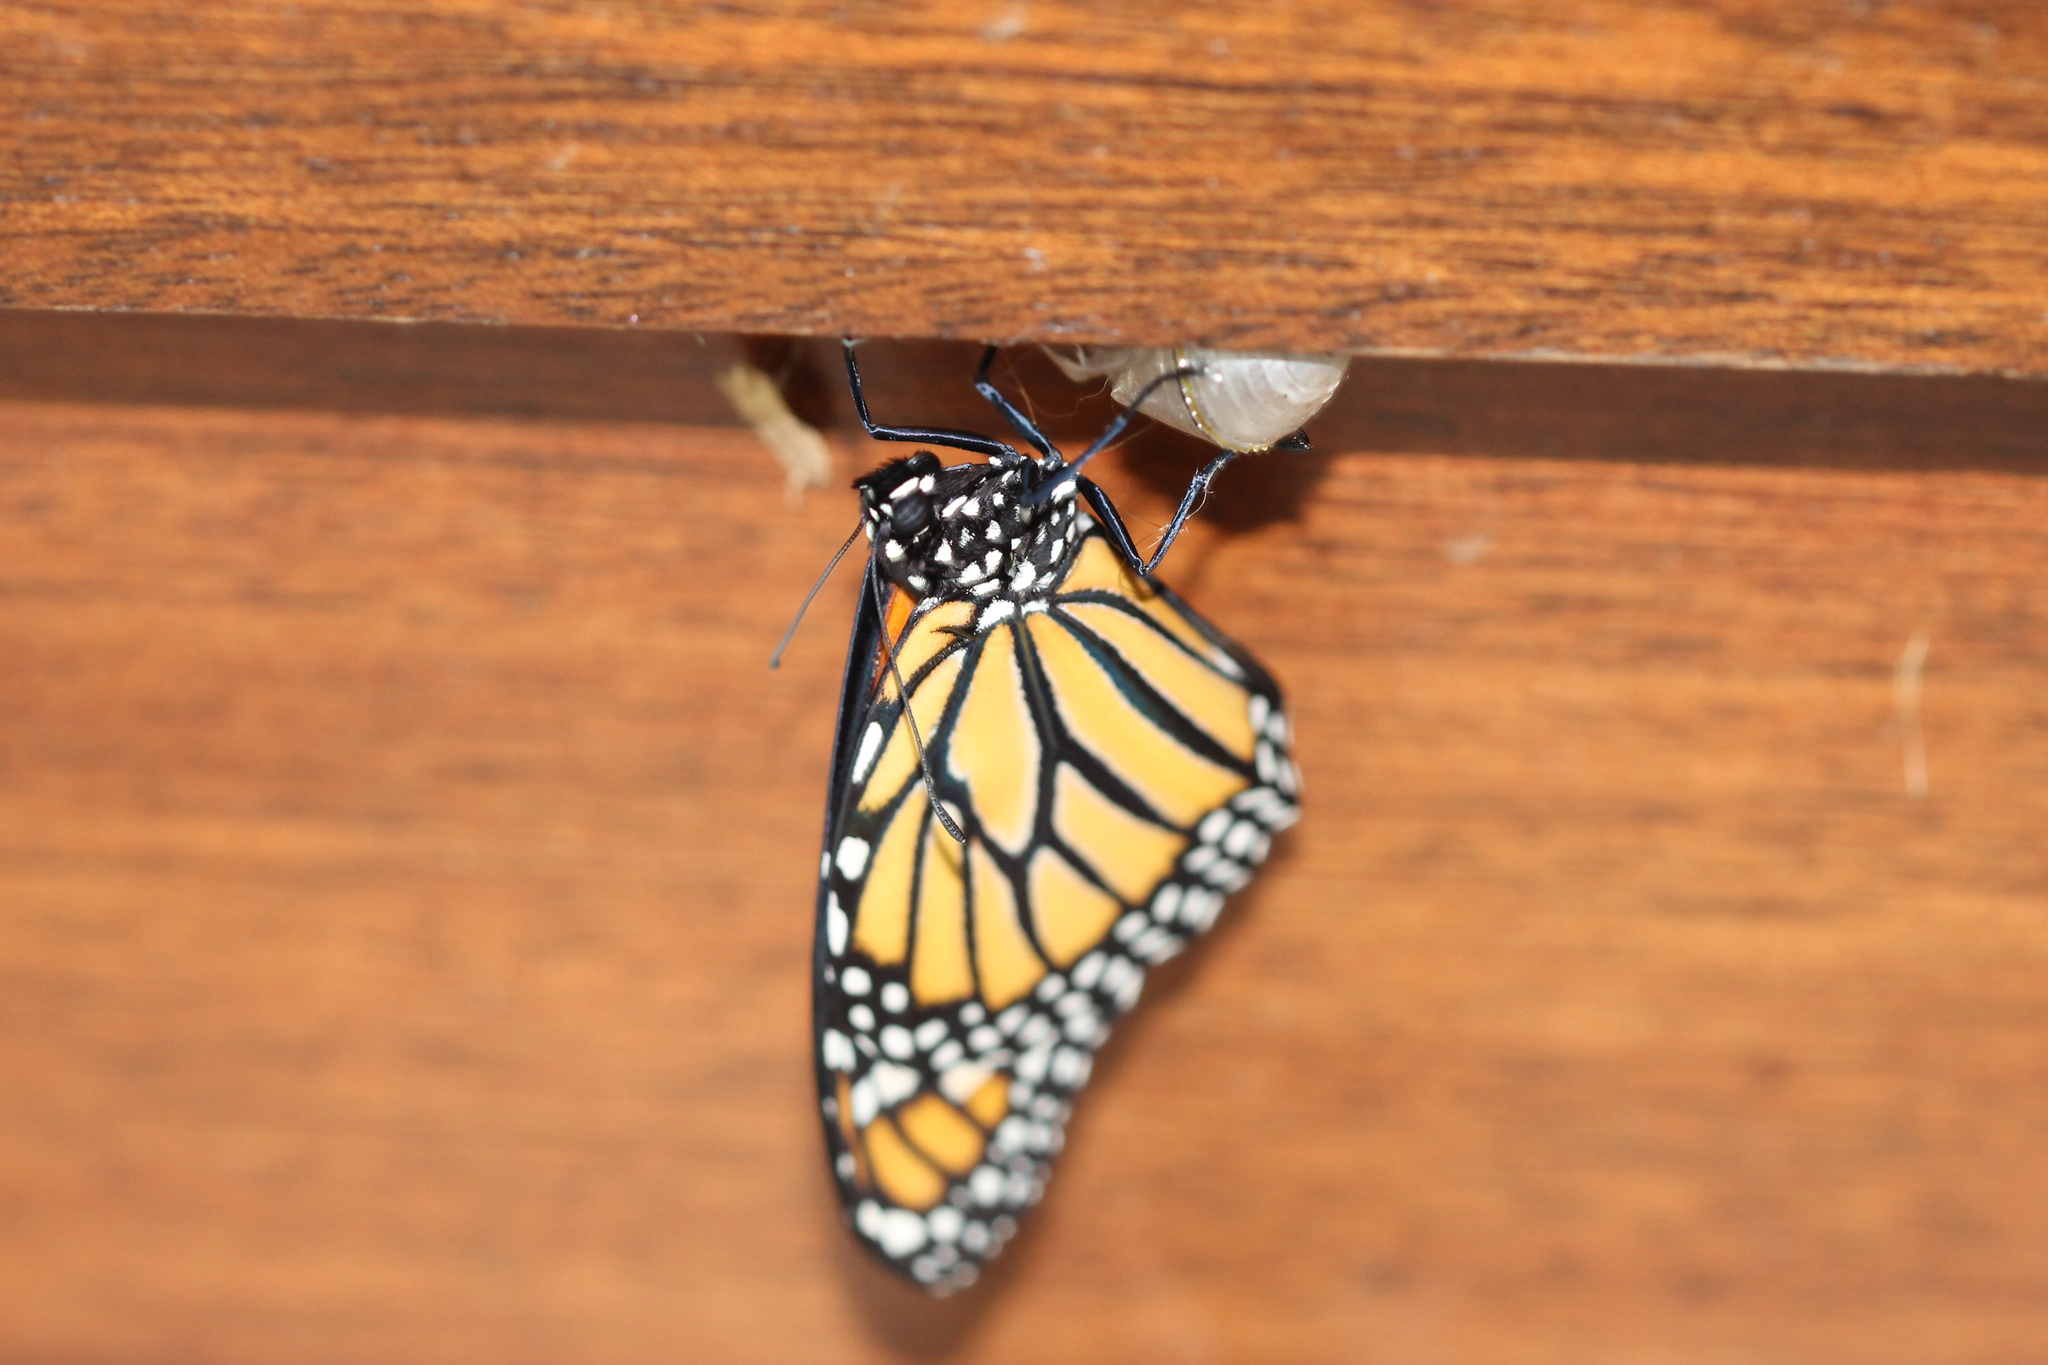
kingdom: Animalia
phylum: Arthropoda
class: Insecta
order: Lepidoptera
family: Nymphalidae
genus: Danaus
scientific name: Danaus plexippus
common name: Monarch
